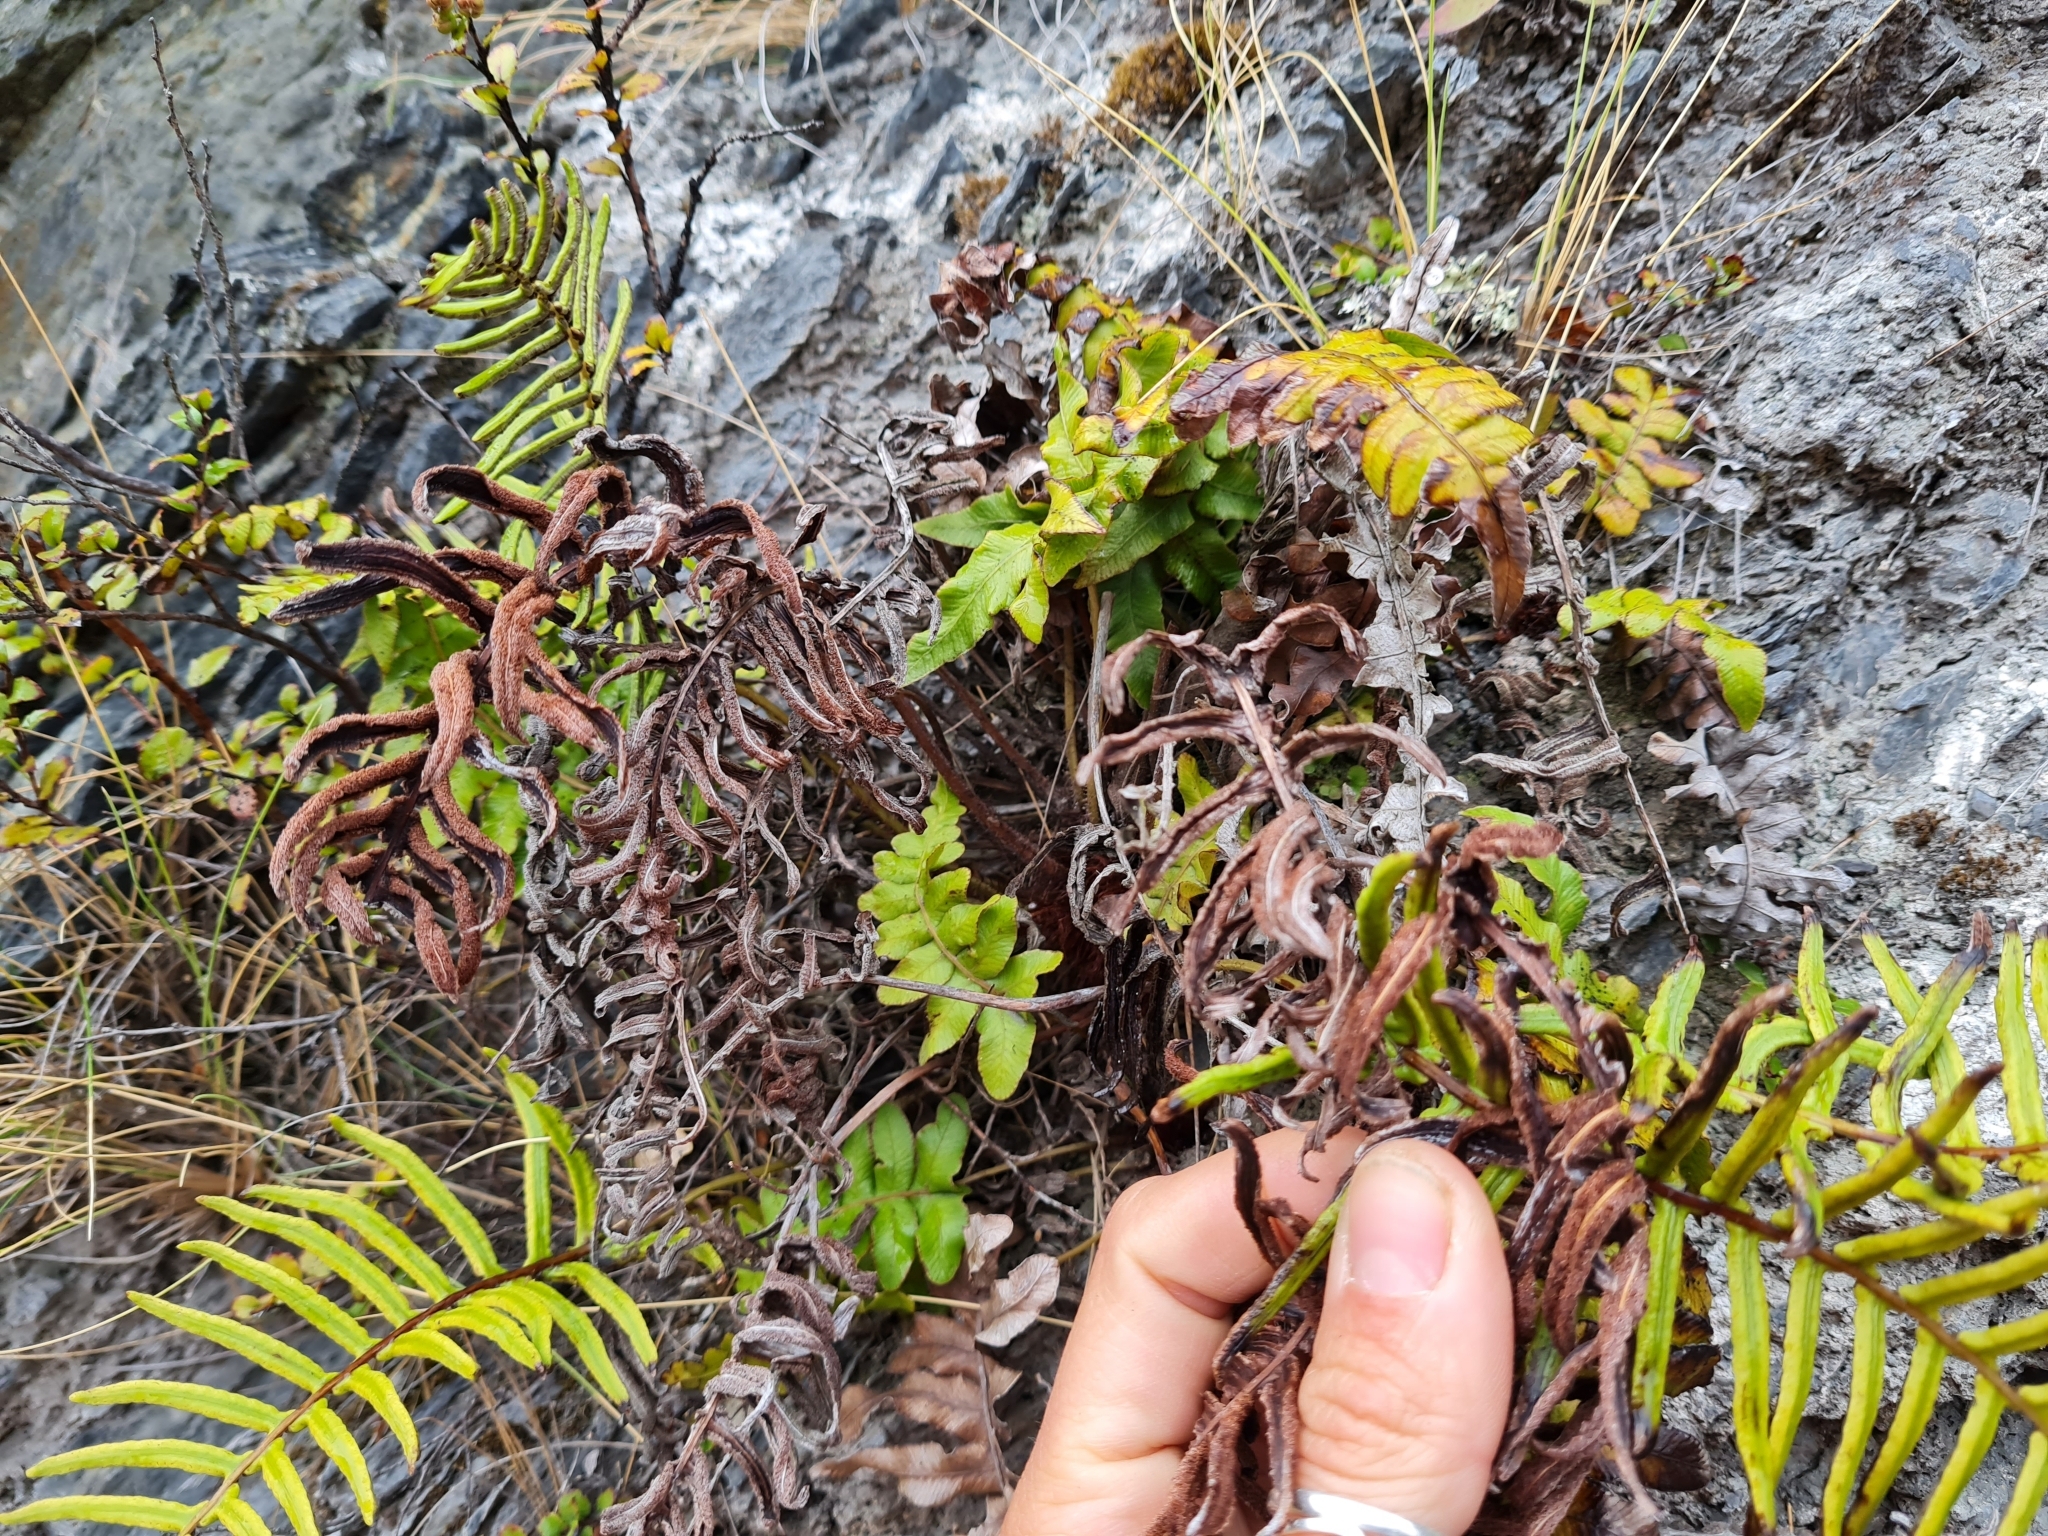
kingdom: Plantae
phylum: Tracheophyta
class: Polypodiopsida
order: Polypodiales
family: Blechnaceae
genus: Cranfillia
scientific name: Cranfillia deltoides
